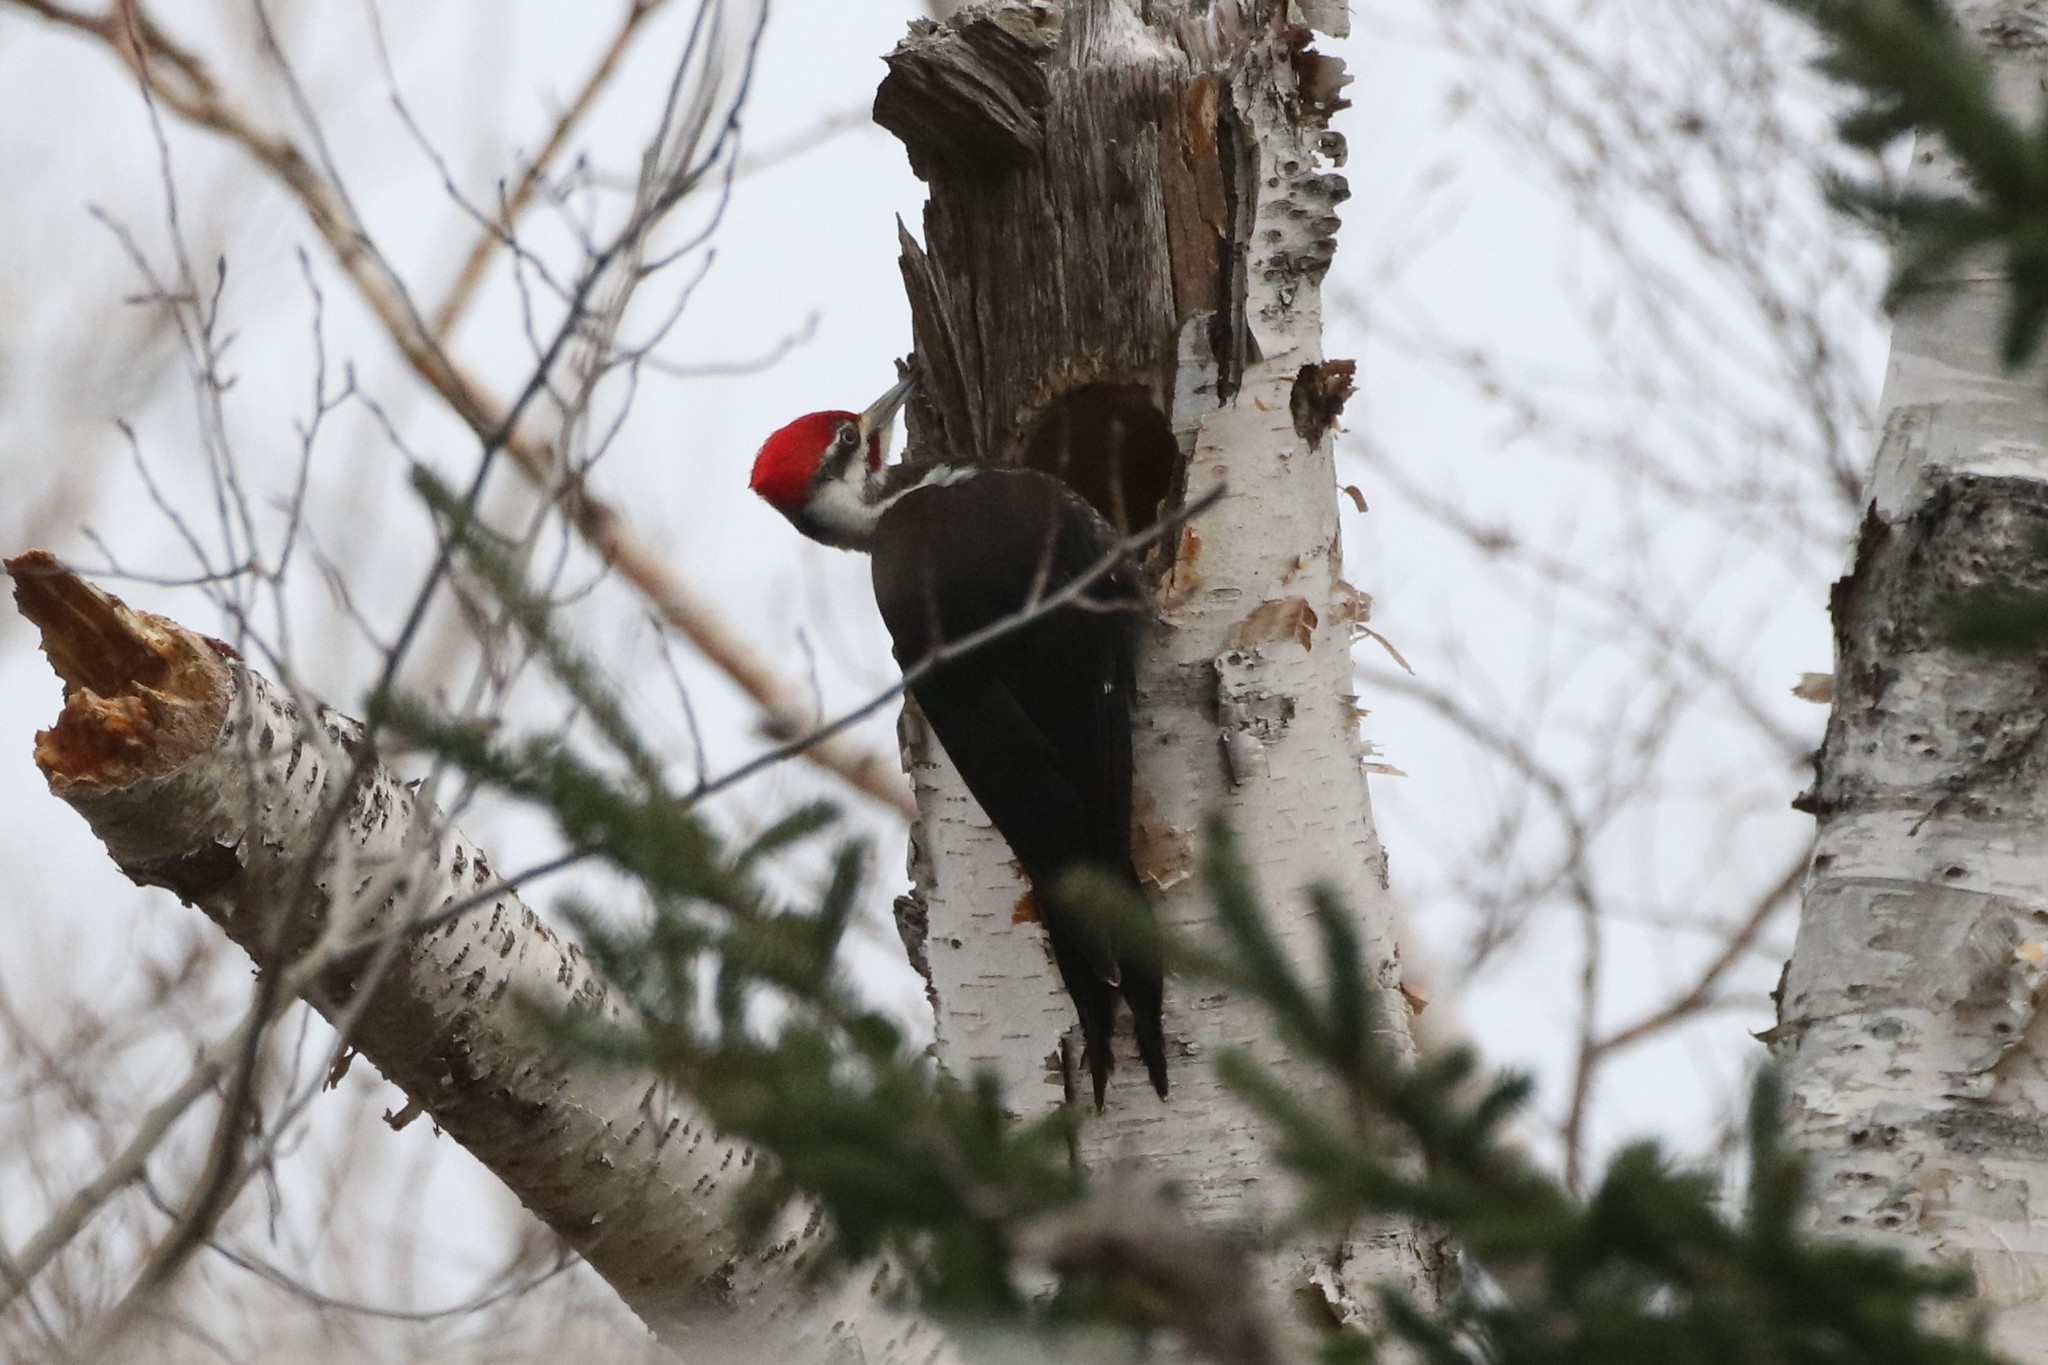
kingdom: Animalia
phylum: Chordata
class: Aves
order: Piciformes
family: Picidae
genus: Dryocopus
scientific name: Dryocopus pileatus
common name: Pileated woodpecker
